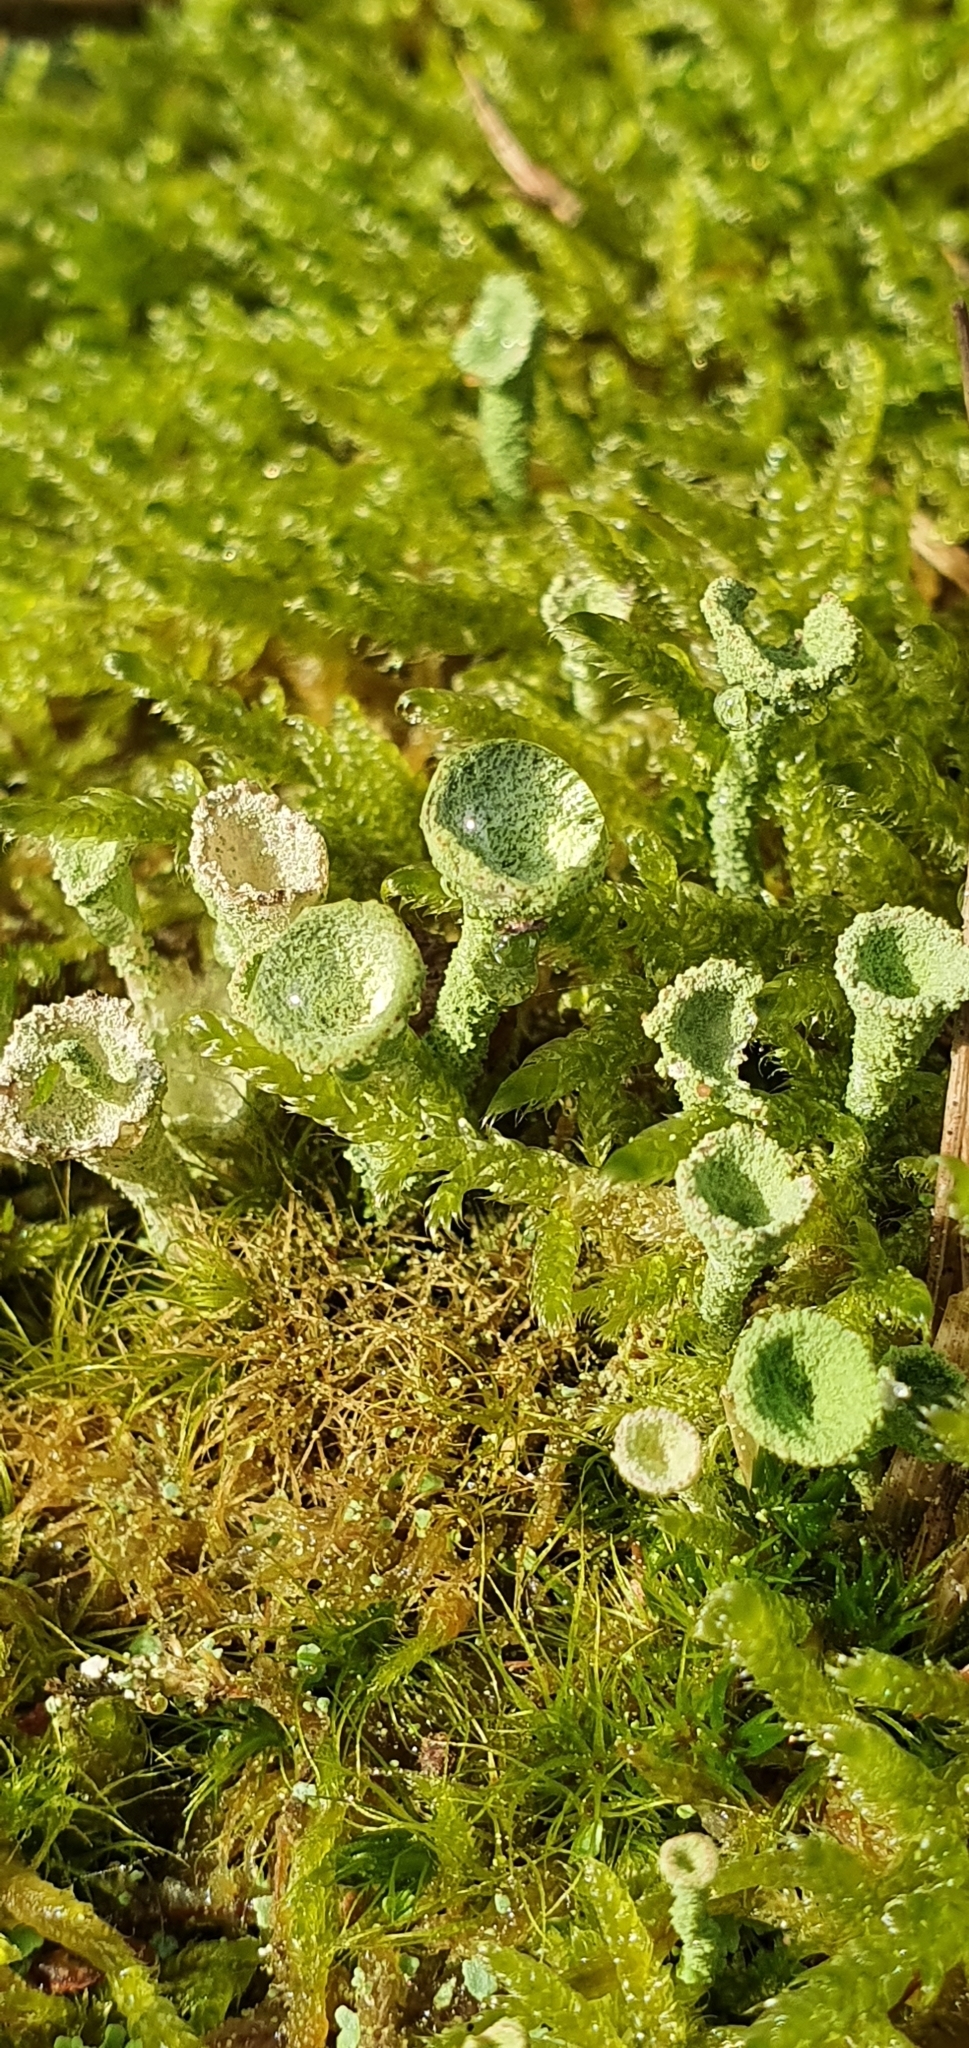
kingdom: Fungi
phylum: Ascomycota
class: Lecanoromycetes
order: Lecanorales
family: Cladoniaceae
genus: Cladonia
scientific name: Cladonia
